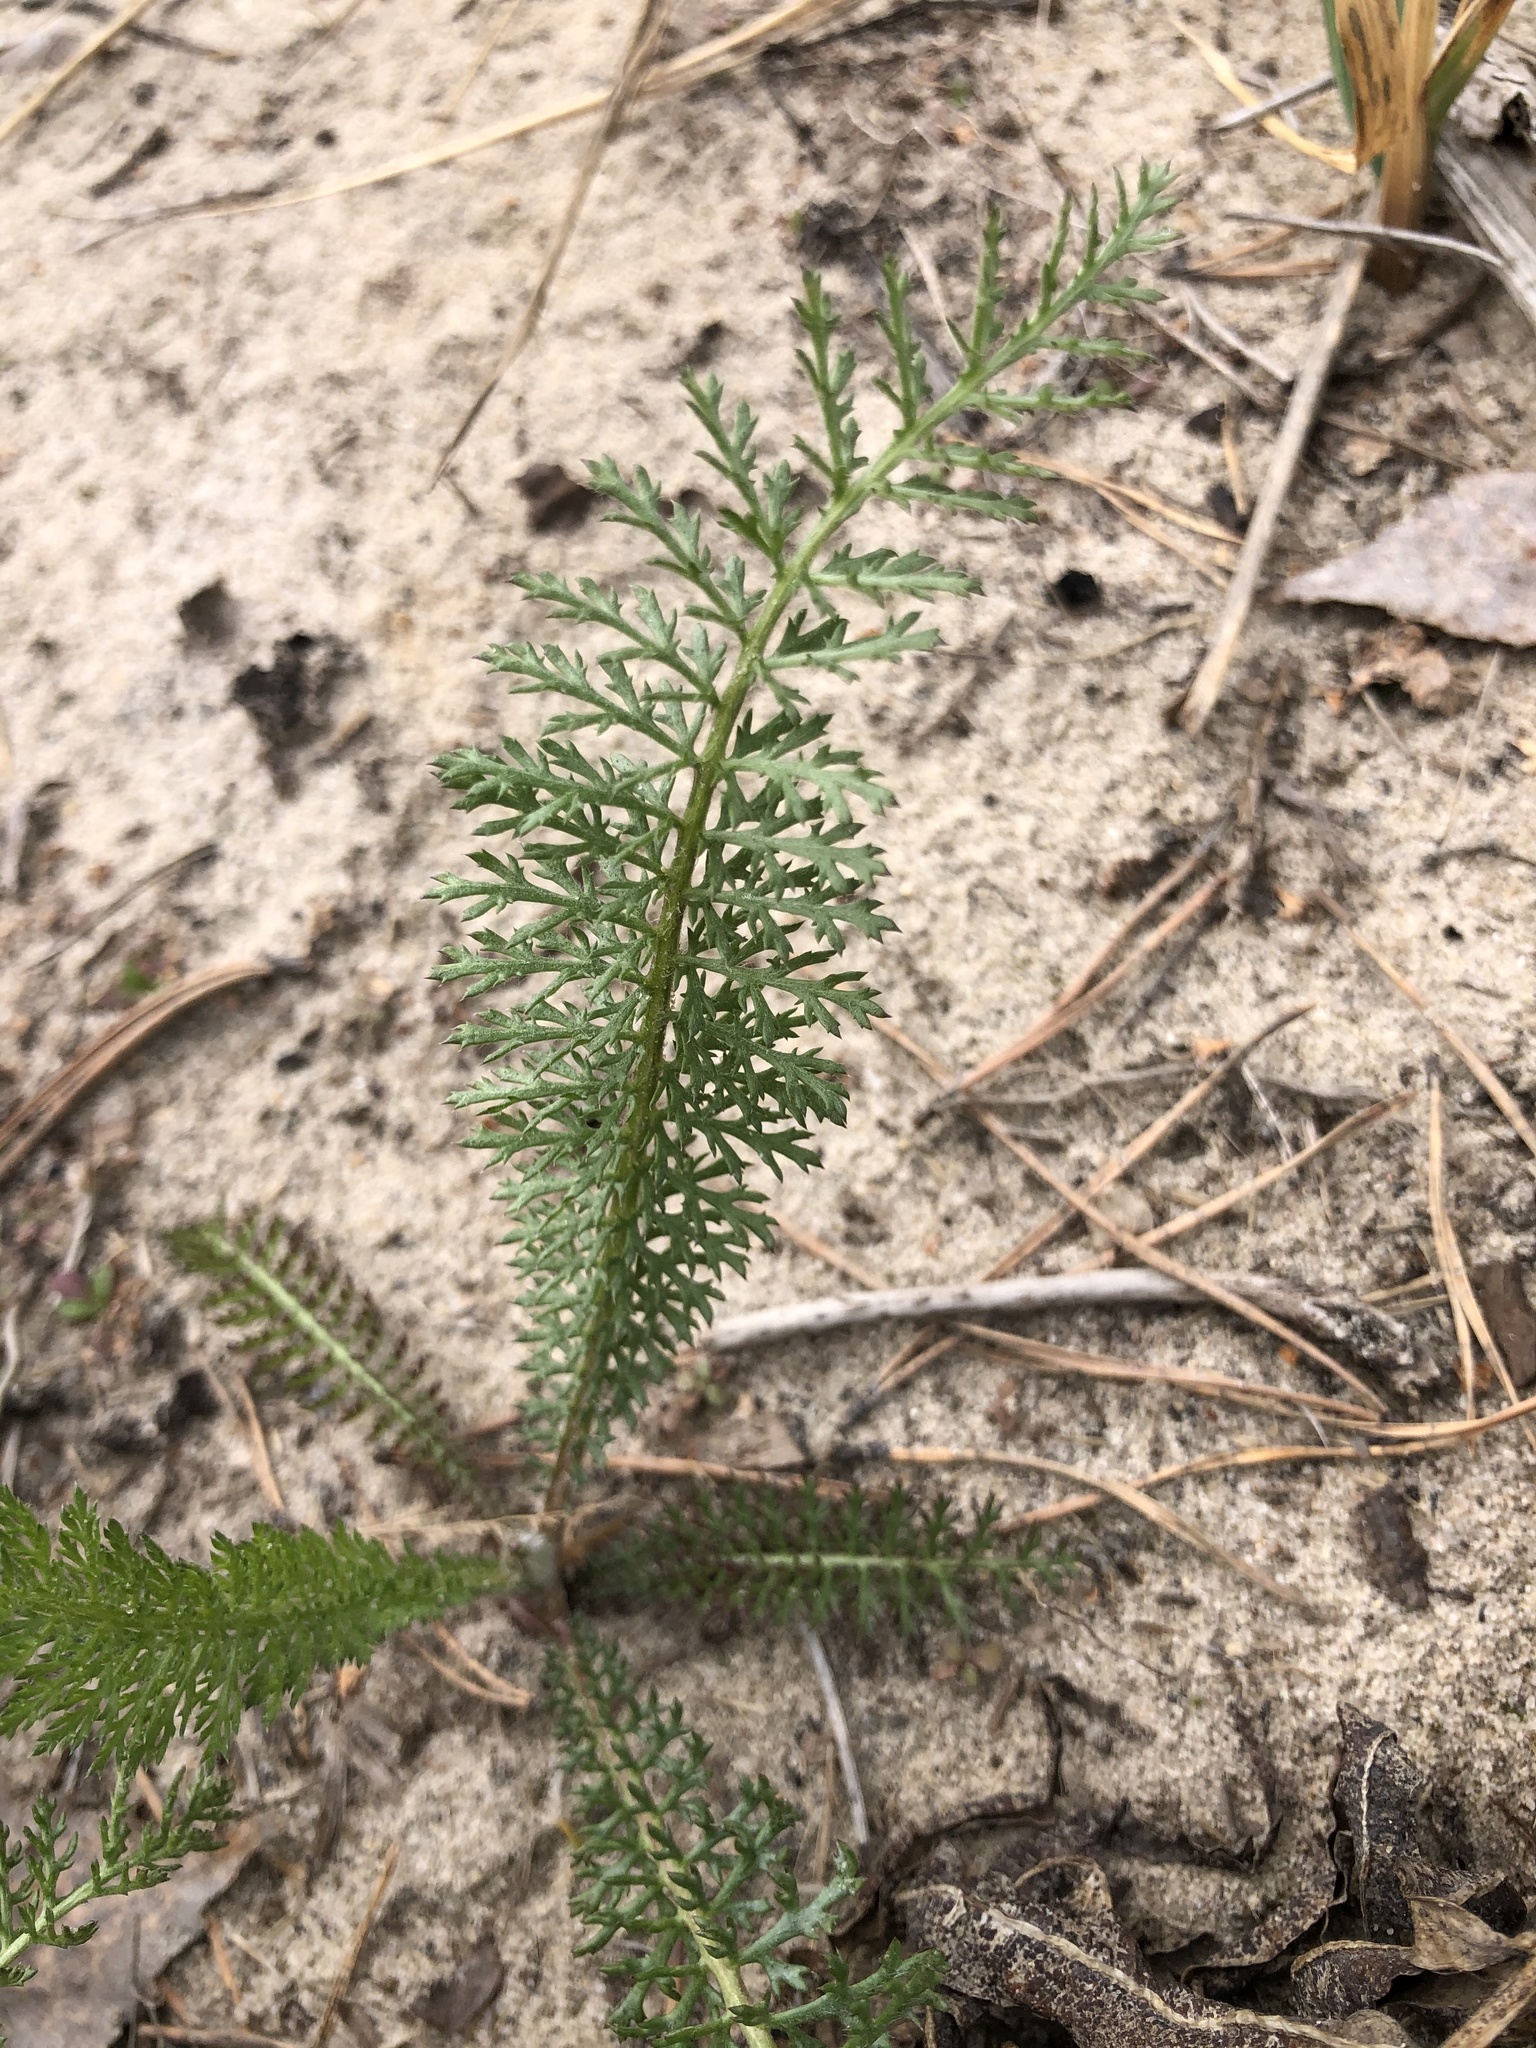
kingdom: Plantae
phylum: Tracheophyta
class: Magnoliopsida
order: Asterales
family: Asteraceae
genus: Achillea
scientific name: Achillea millefolium
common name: Yarrow
